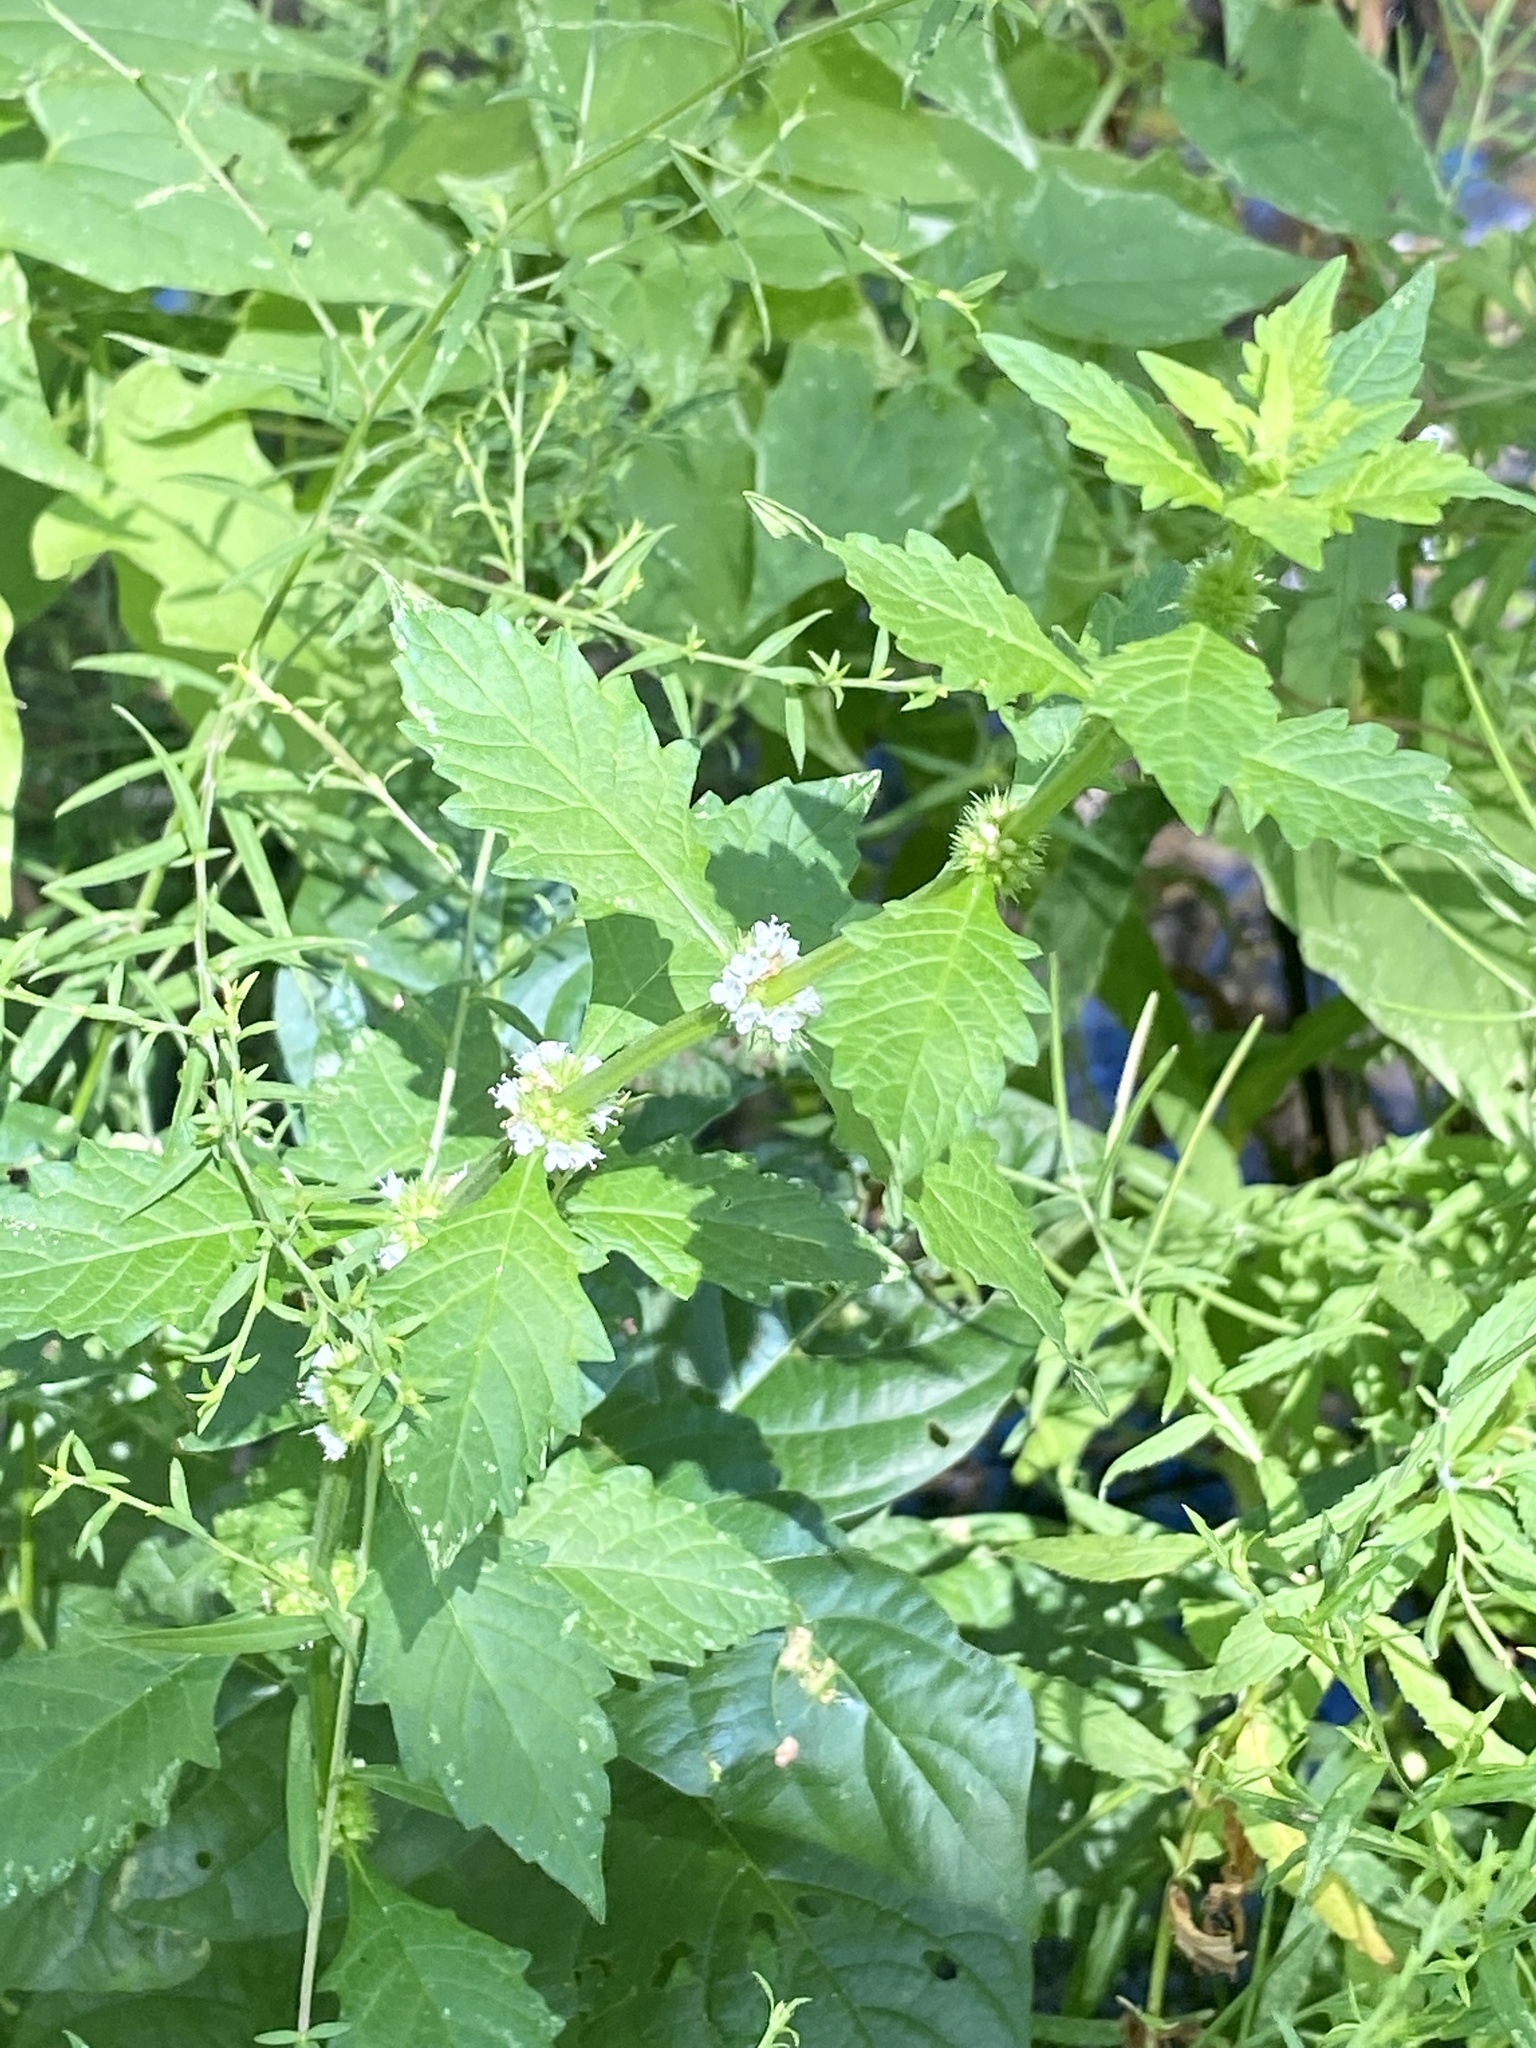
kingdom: Plantae
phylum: Tracheophyta
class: Magnoliopsida
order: Lamiales
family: Lamiaceae
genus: Lycopus
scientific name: Lycopus europaeus
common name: European bugleweed
